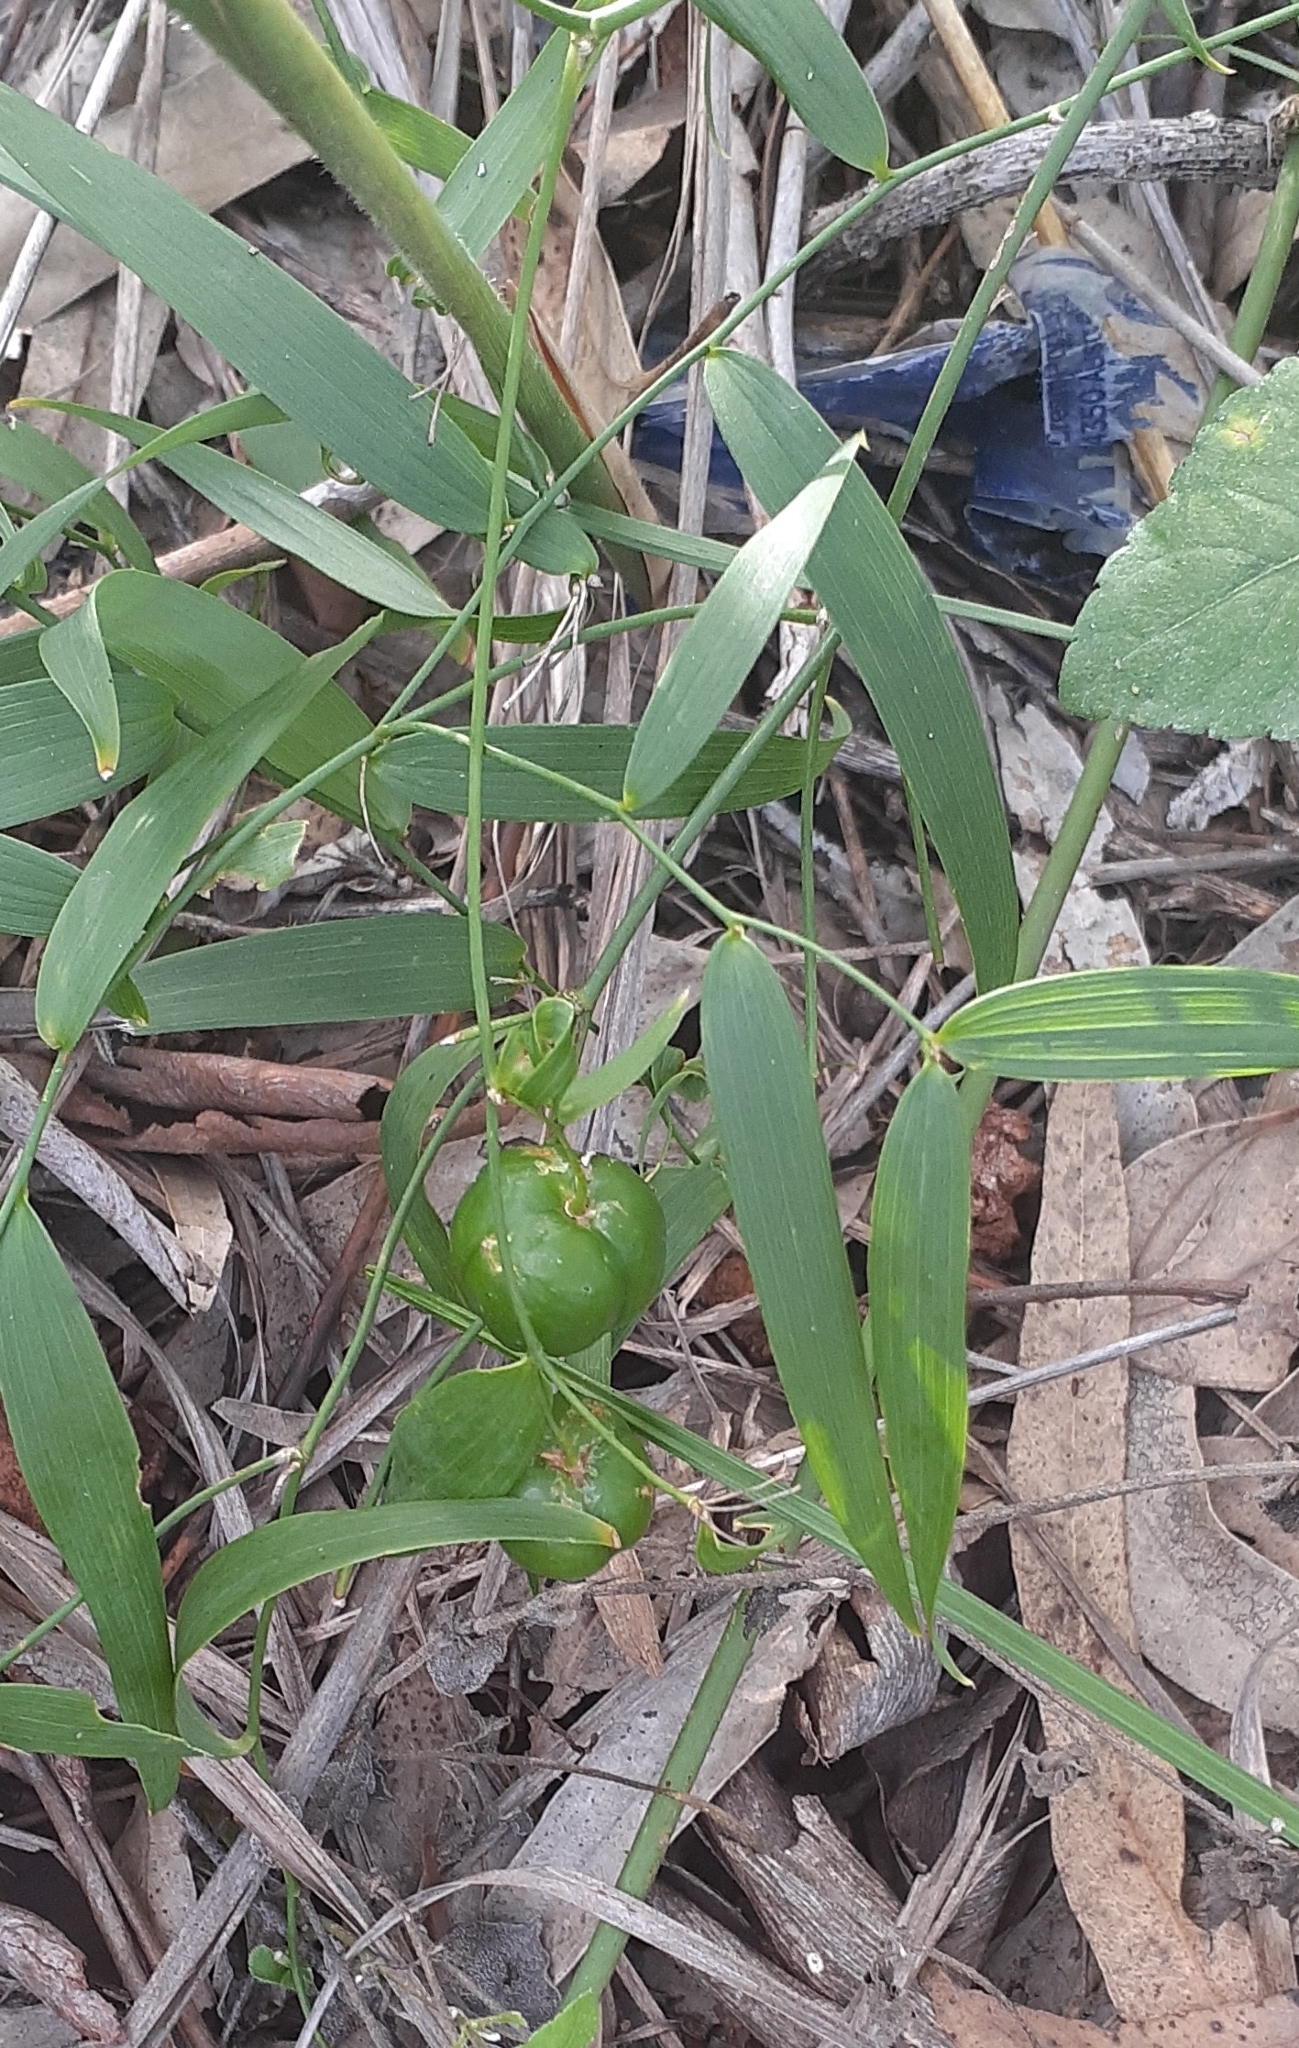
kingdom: Plantae
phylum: Tracheophyta
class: Liliopsida
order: Asparagales
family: Asparagaceae
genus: Eustrephus
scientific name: Eustrephus latifolius
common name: Orangevine
